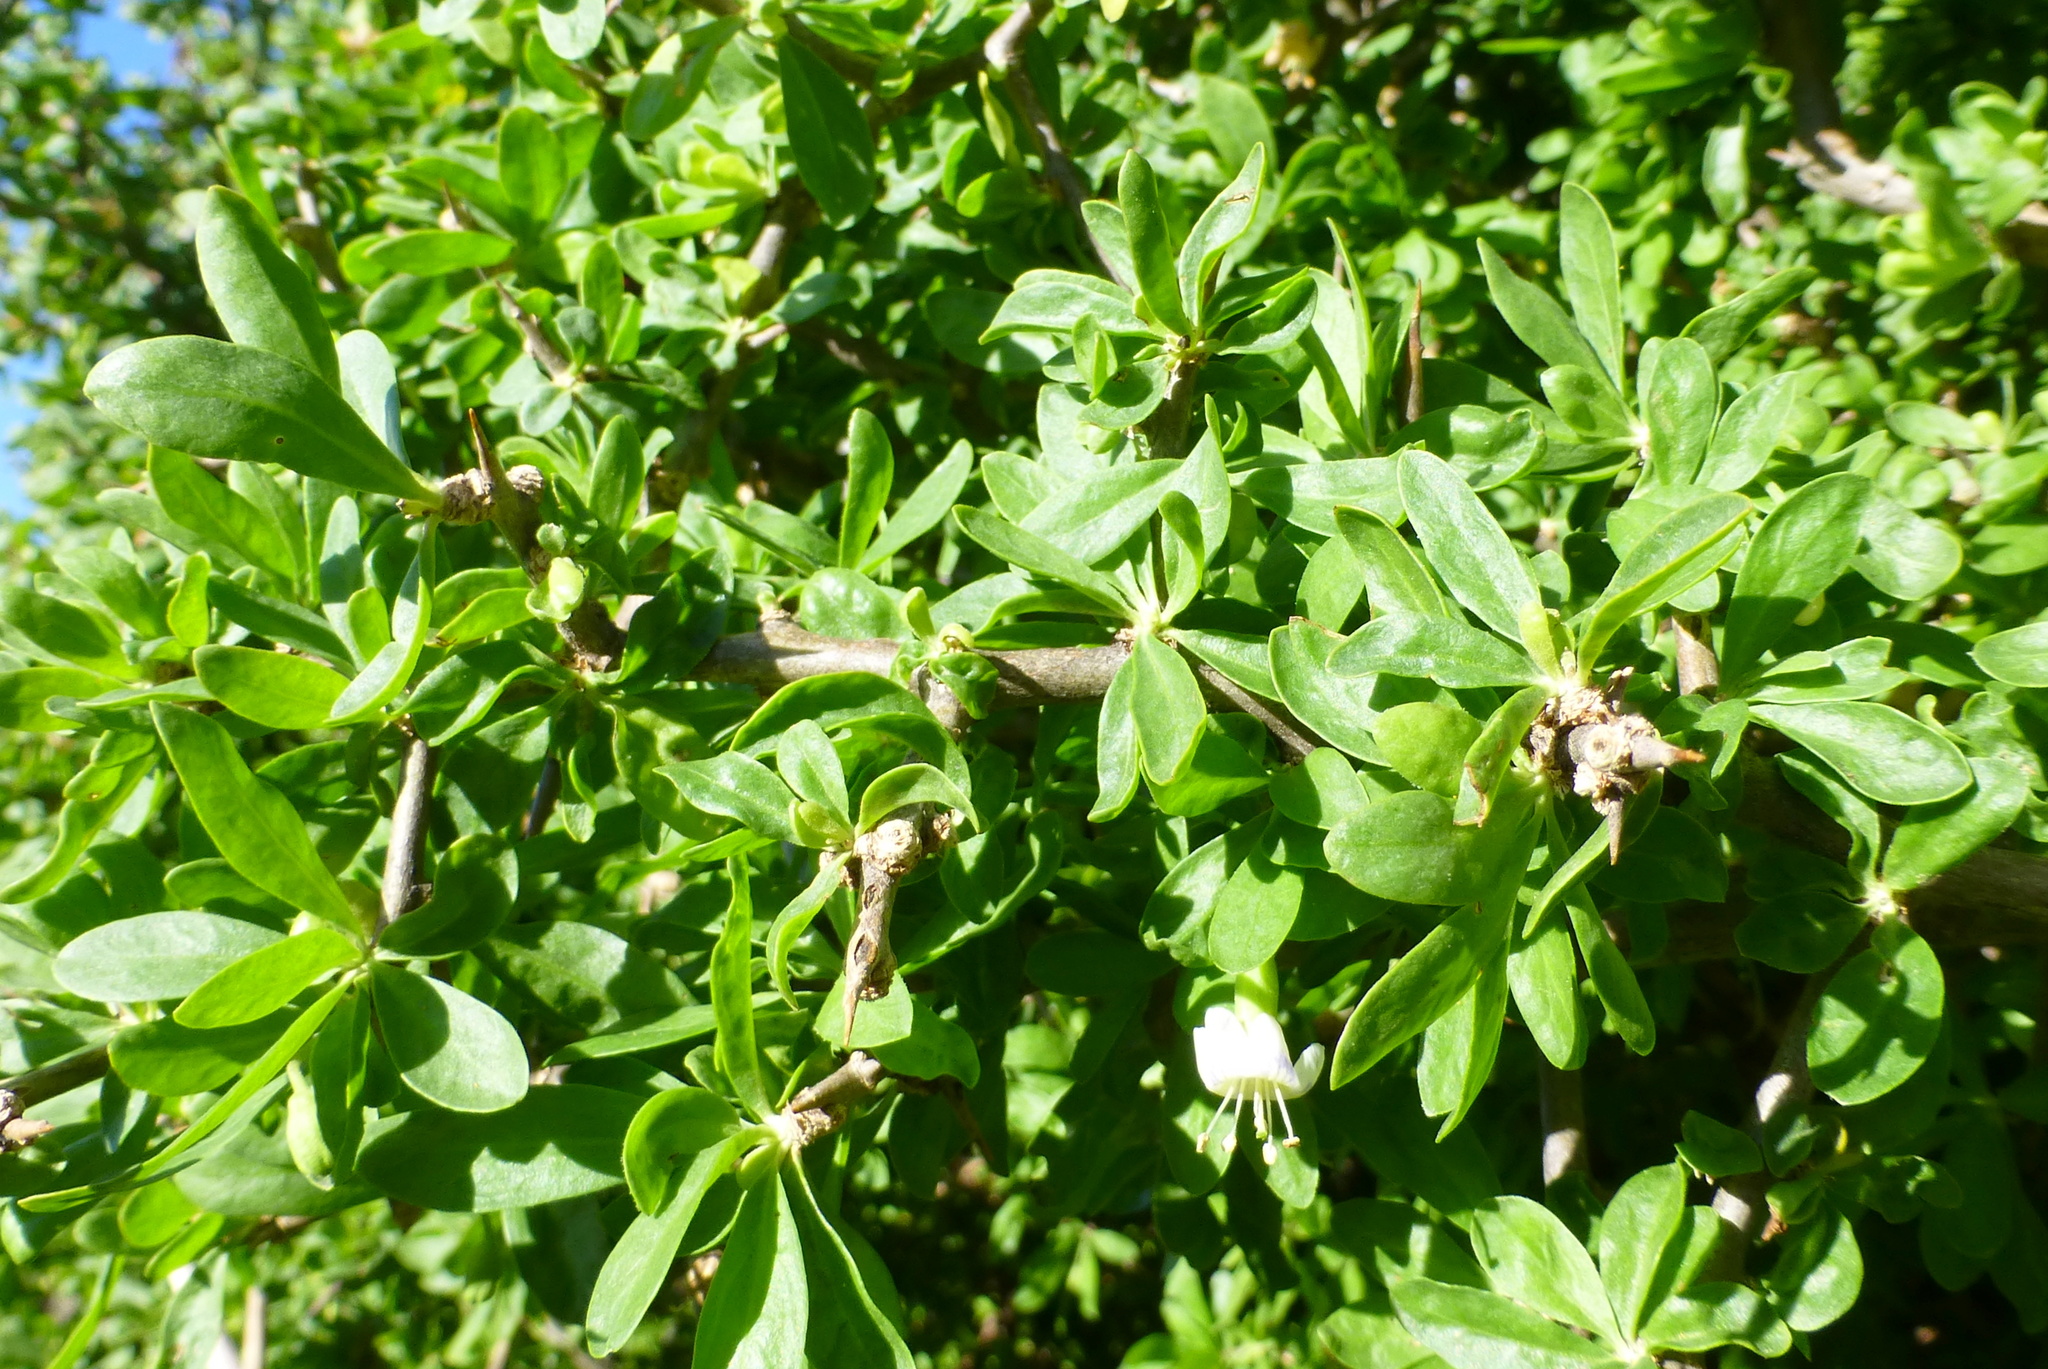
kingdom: Plantae
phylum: Tracheophyta
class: Magnoliopsida
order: Solanales
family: Solanaceae
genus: Lycium
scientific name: Lycium ferocissimum
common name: African boxthorn
